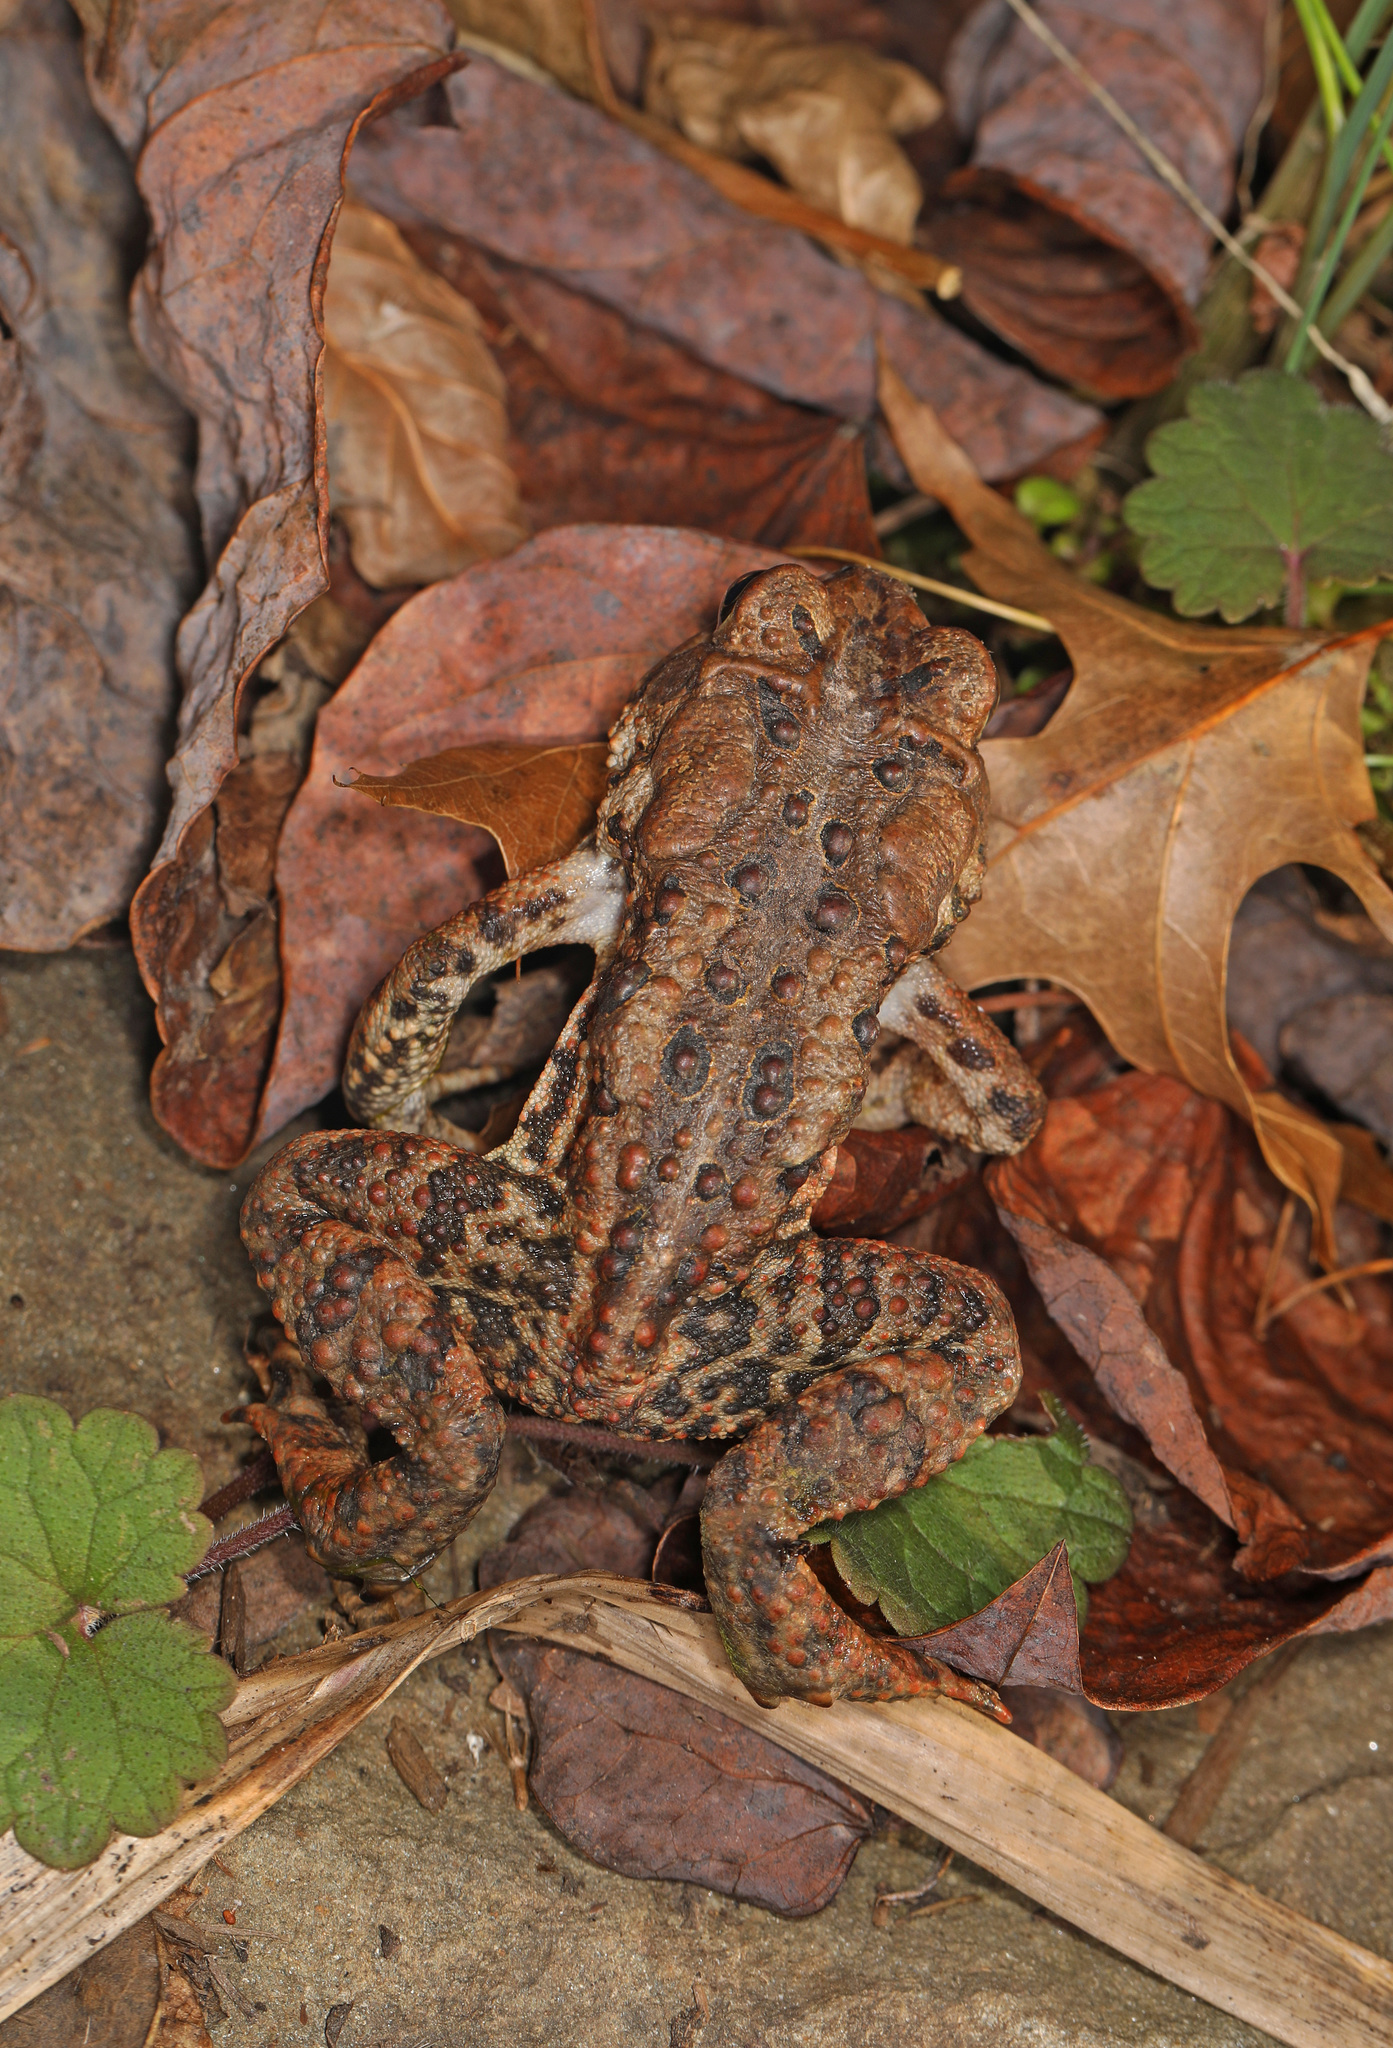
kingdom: Animalia
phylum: Chordata
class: Amphibia
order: Anura
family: Bufonidae
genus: Anaxyrus
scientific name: Anaxyrus americanus
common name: American toad
